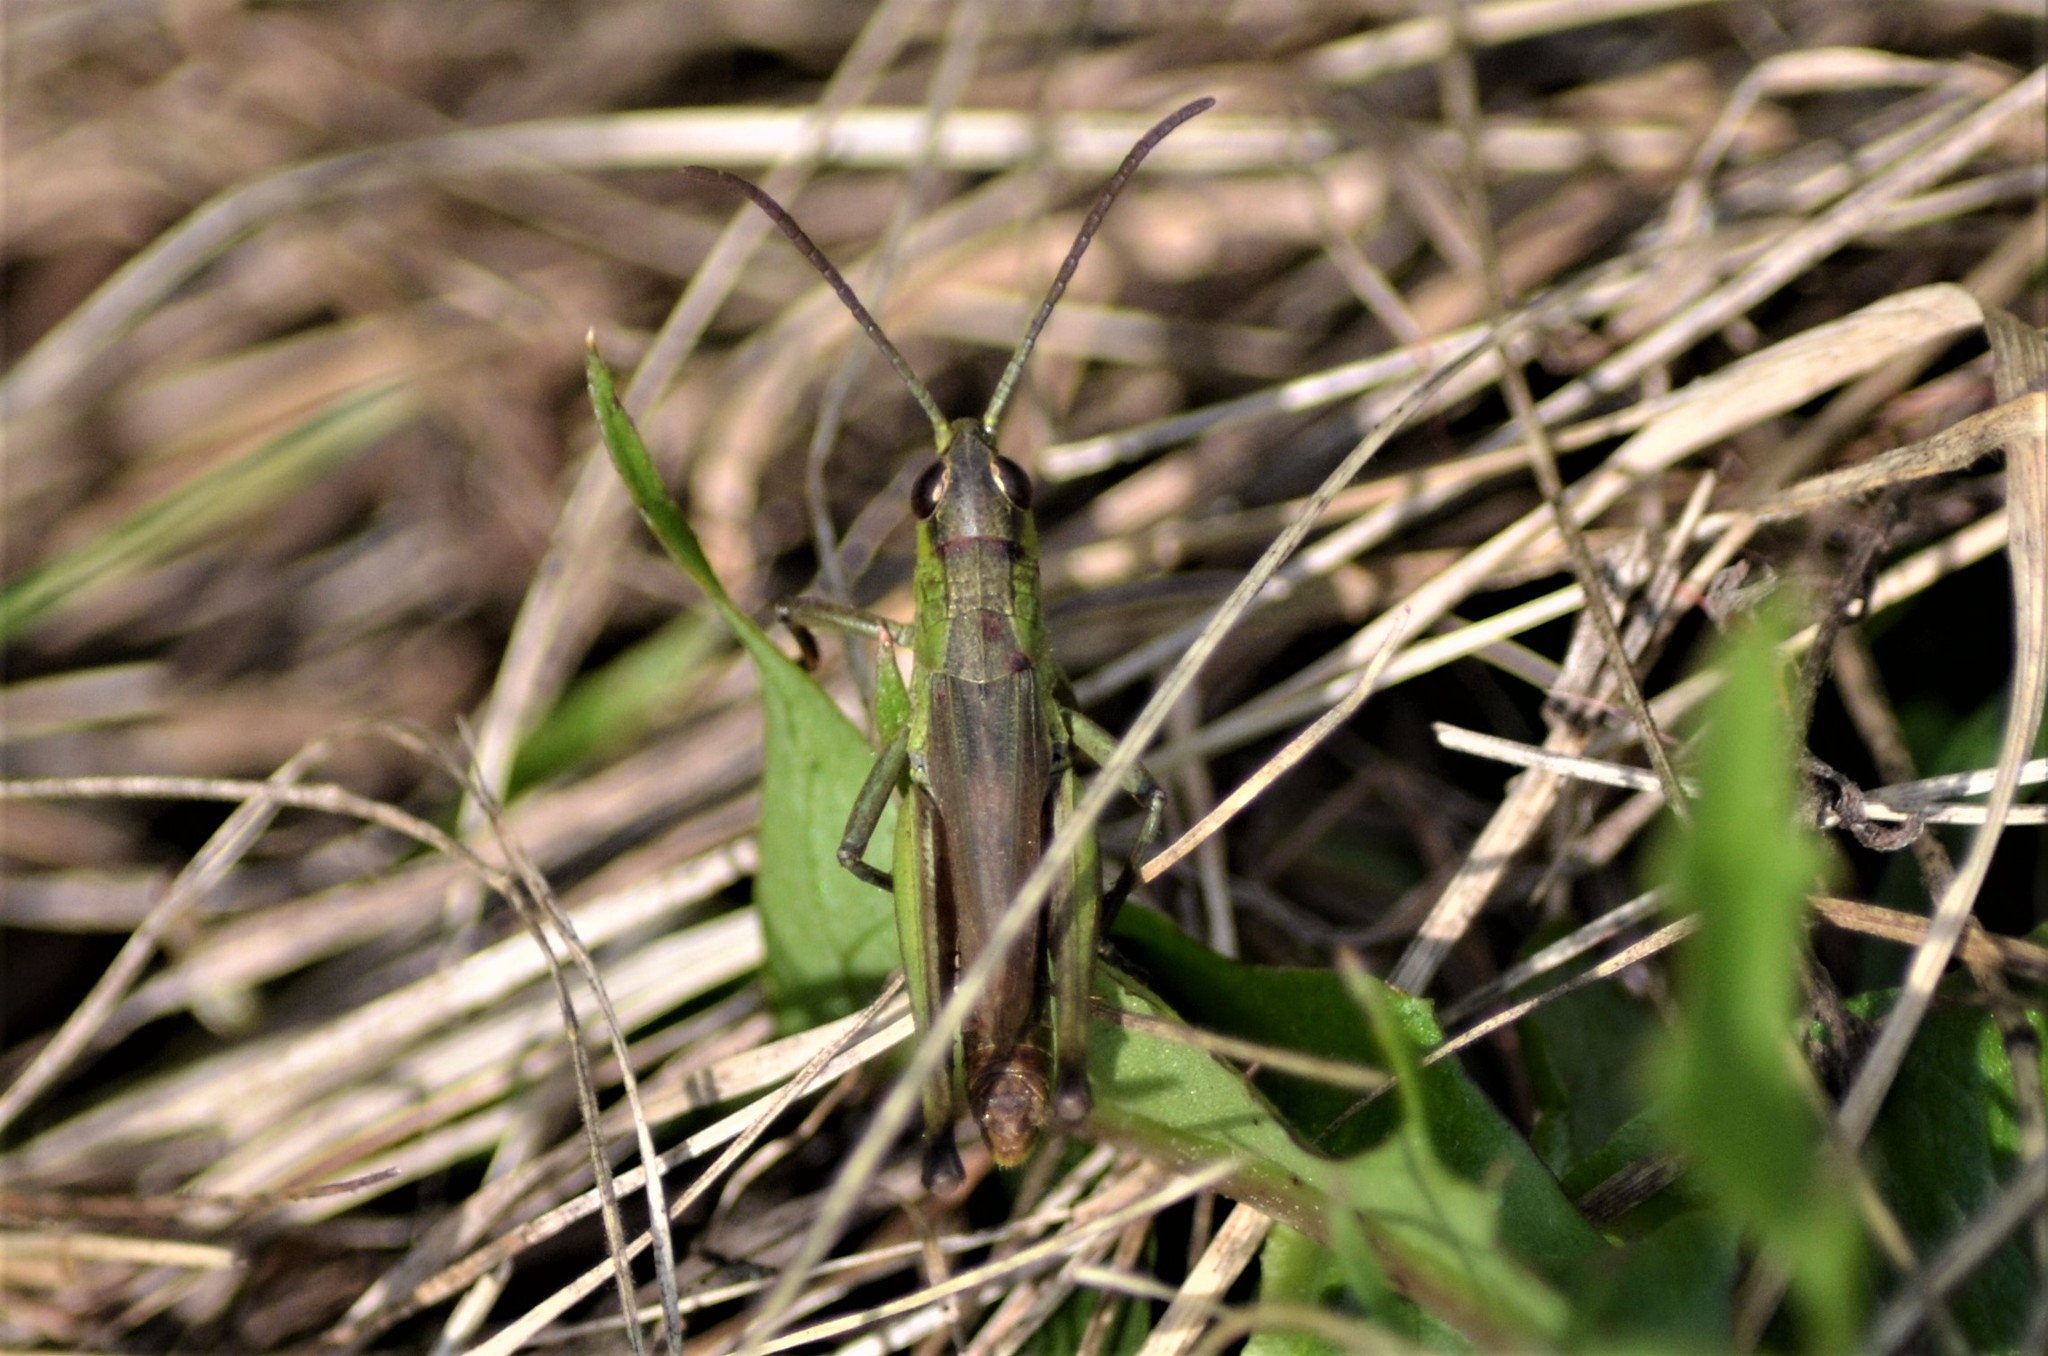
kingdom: Animalia
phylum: Arthropoda
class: Insecta
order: Orthoptera
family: Acrididae
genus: Pseudochorthippus
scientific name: Pseudochorthippus parallelus
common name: Meadow grasshopper
